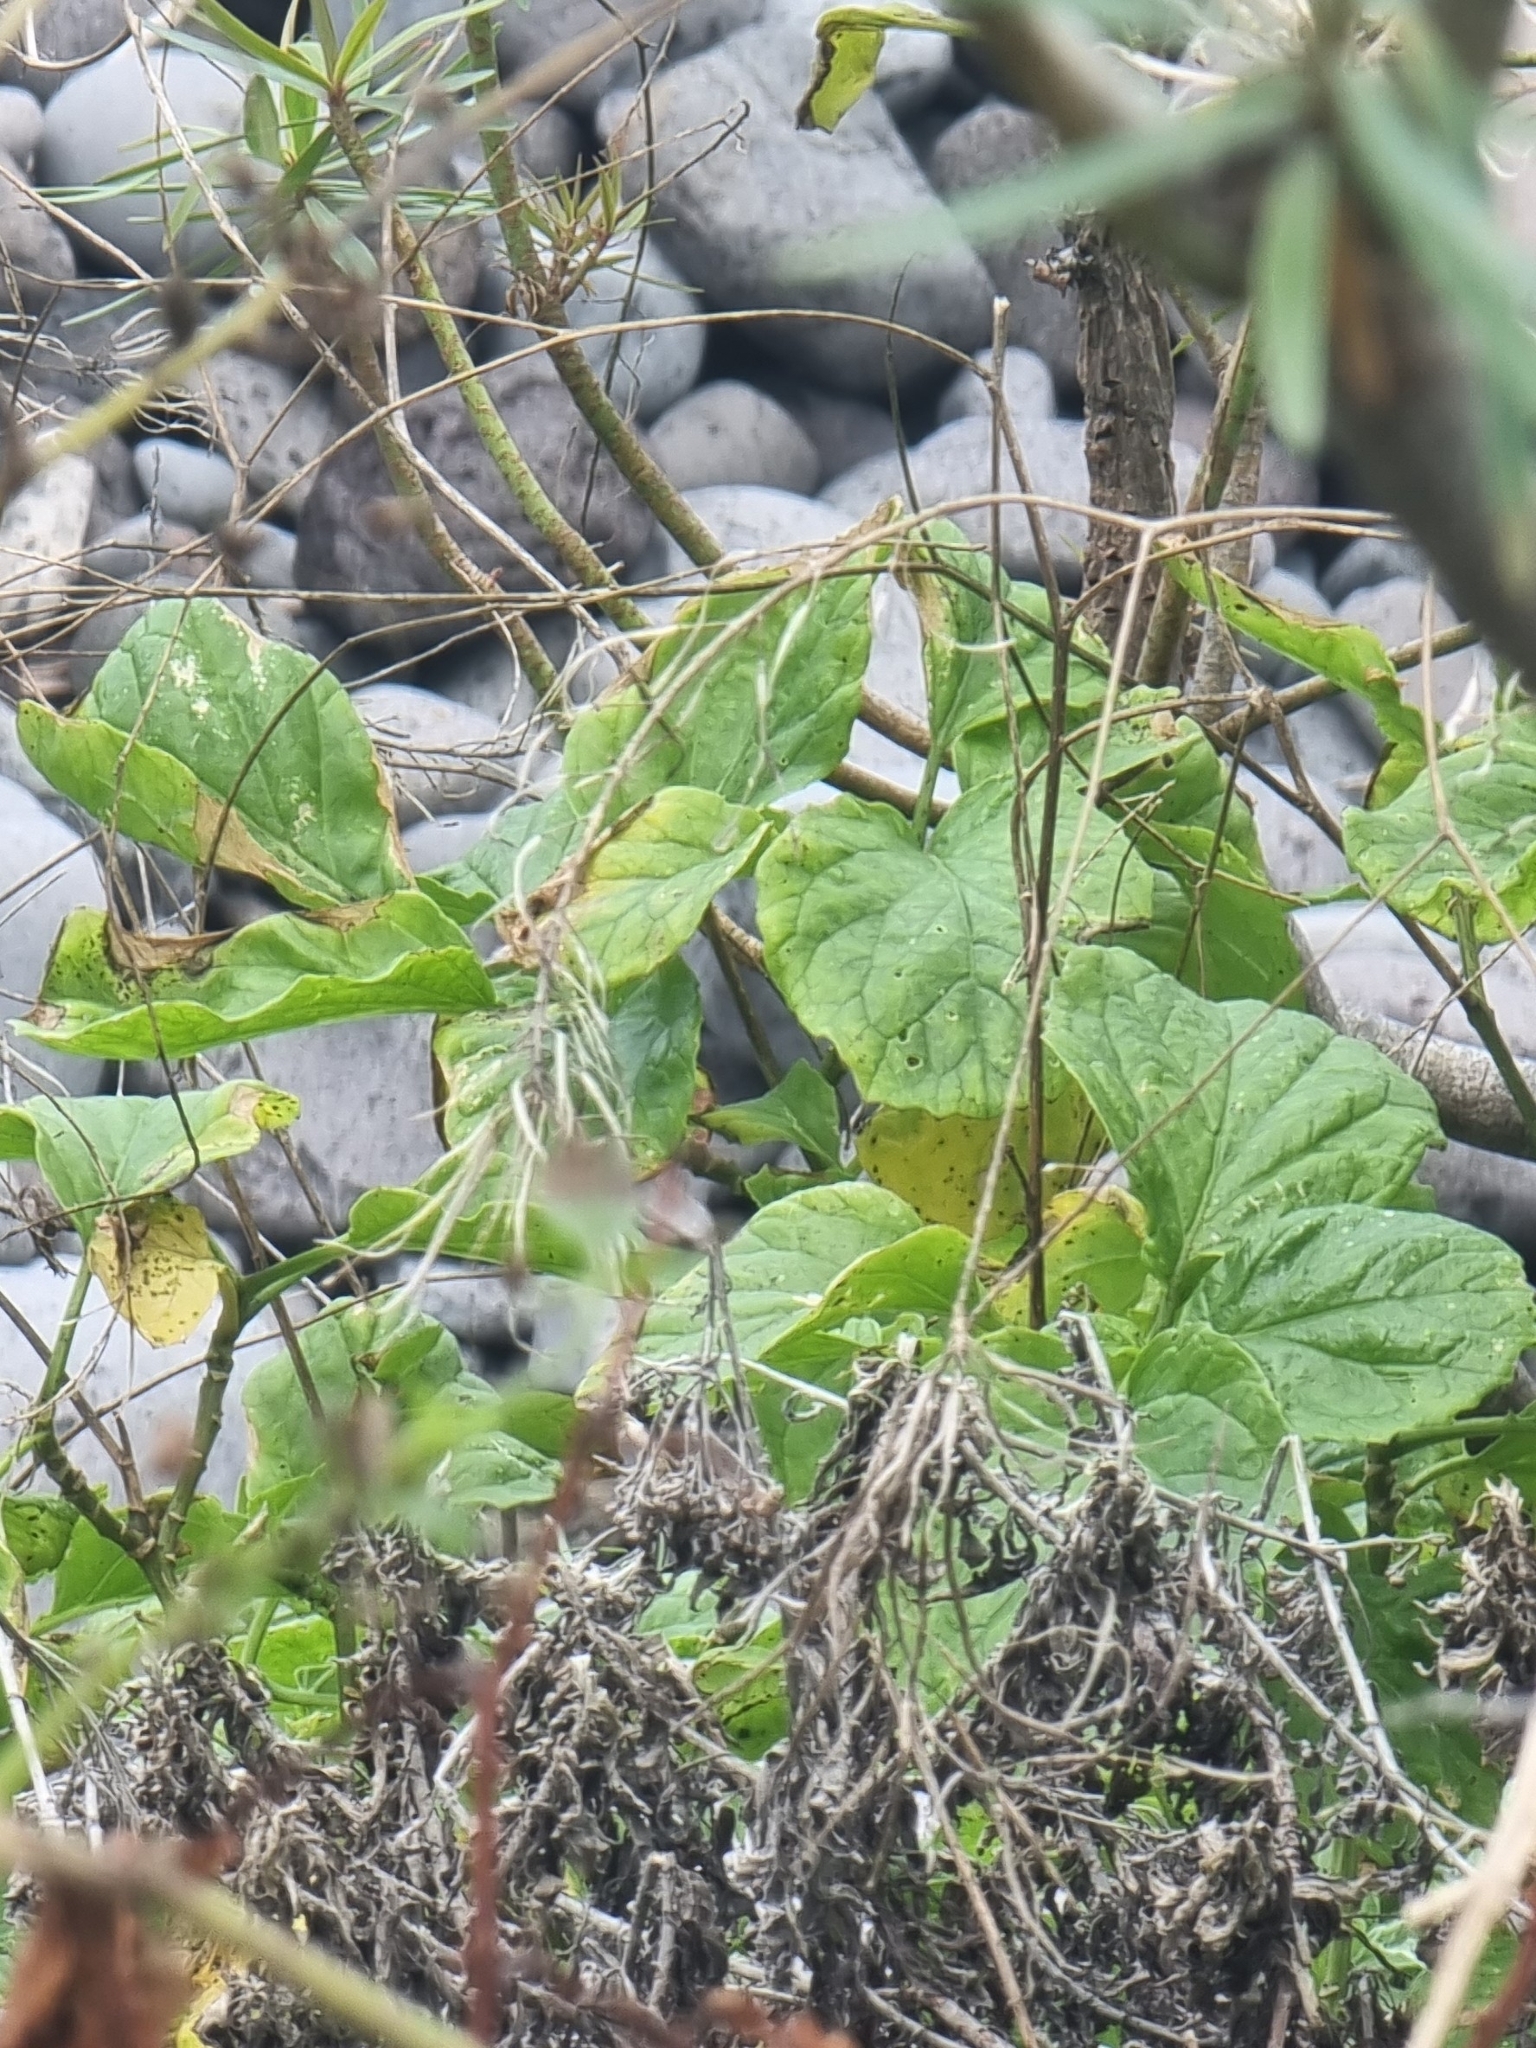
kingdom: Plantae
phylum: Tracheophyta
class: Magnoliopsida
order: Brassicales
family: Brassicaceae
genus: Sinapidendron
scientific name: Sinapidendron rupestre
